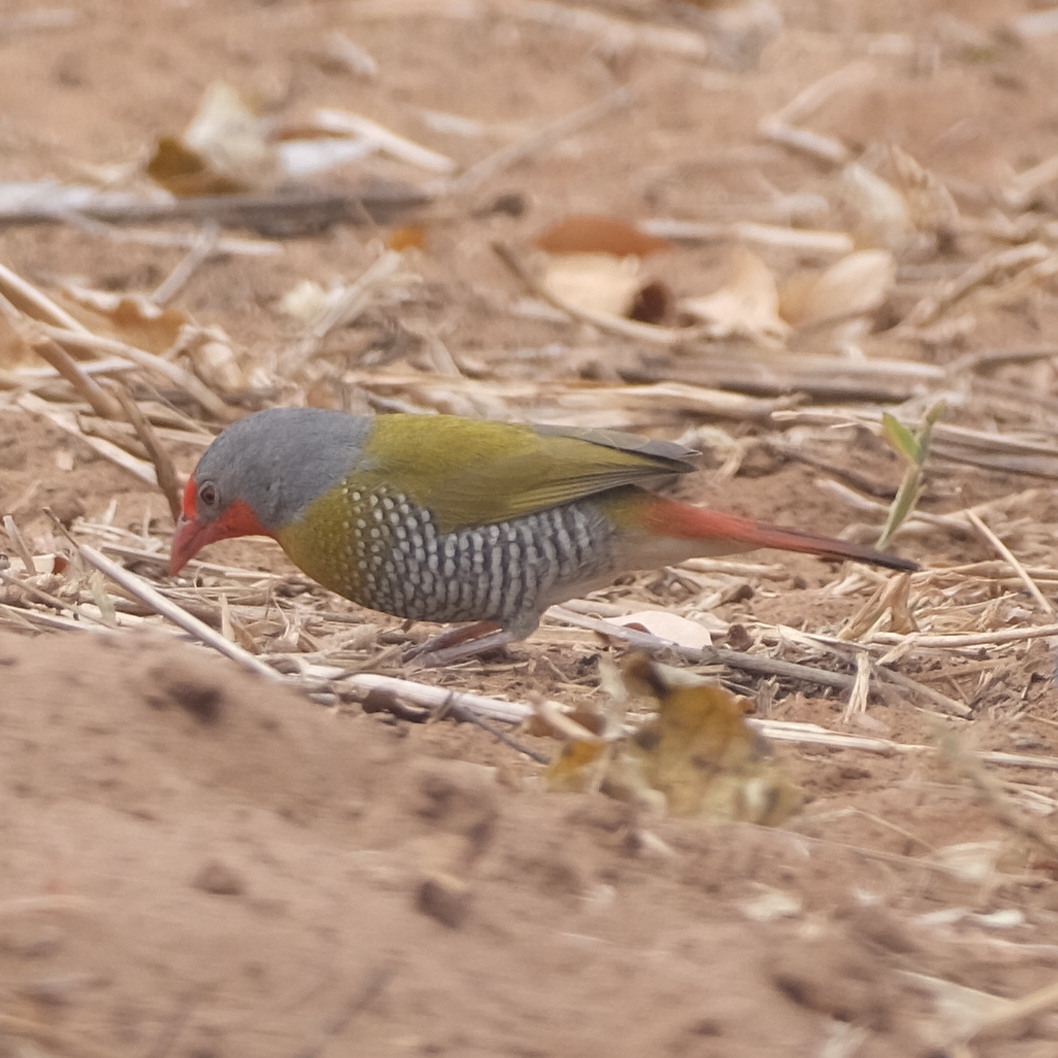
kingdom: Animalia
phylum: Chordata
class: Aves
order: Passeriformes
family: Estrildidae
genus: Pytilia
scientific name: Pytilia melba
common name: Green-winged pytilia
